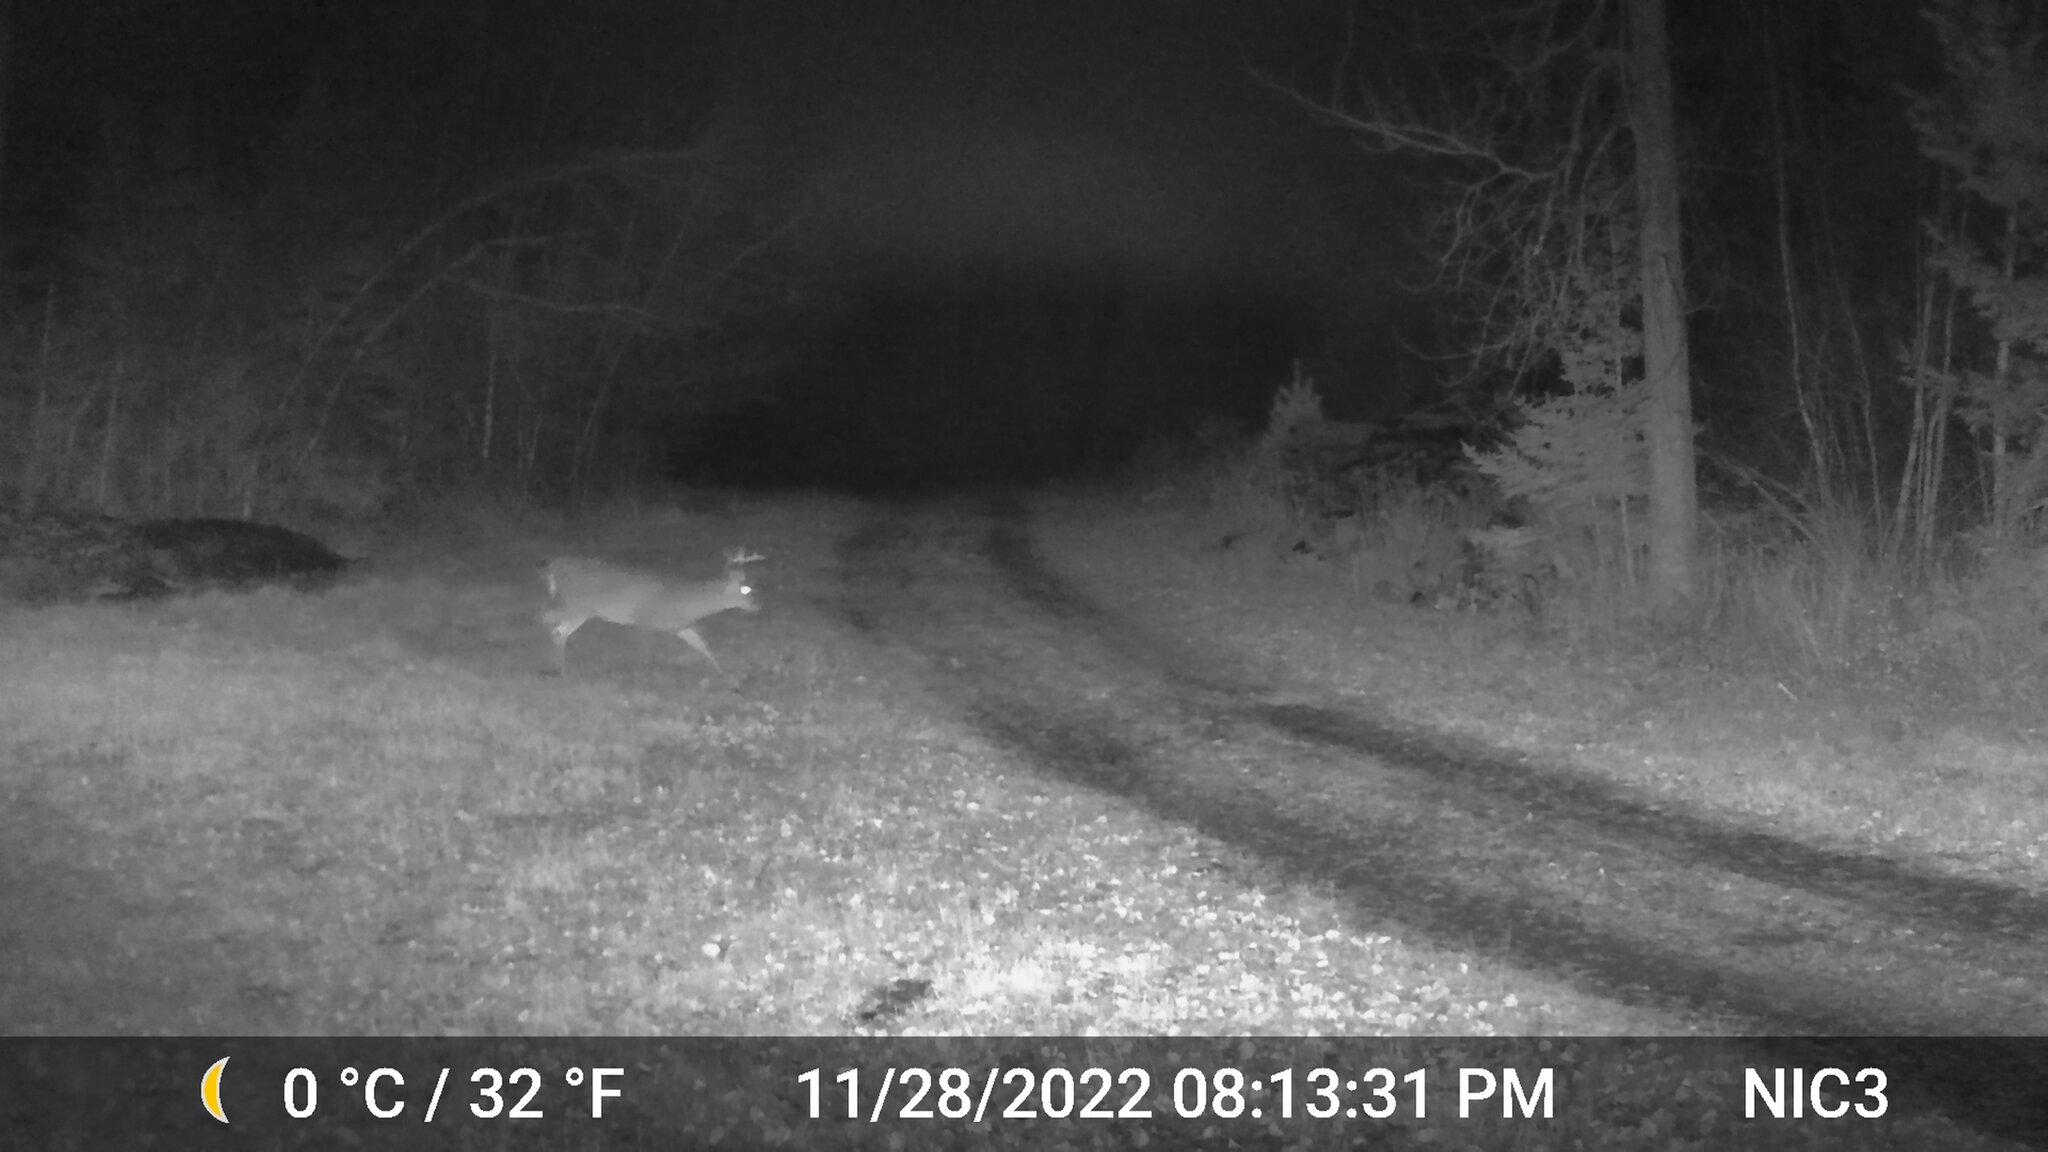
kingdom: Animalia
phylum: Chordata
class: Mammalia
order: Artiodactyla
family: Cervidae
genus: Odocoileus
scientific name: Odocoileus virginianus
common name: White-tailed deer
